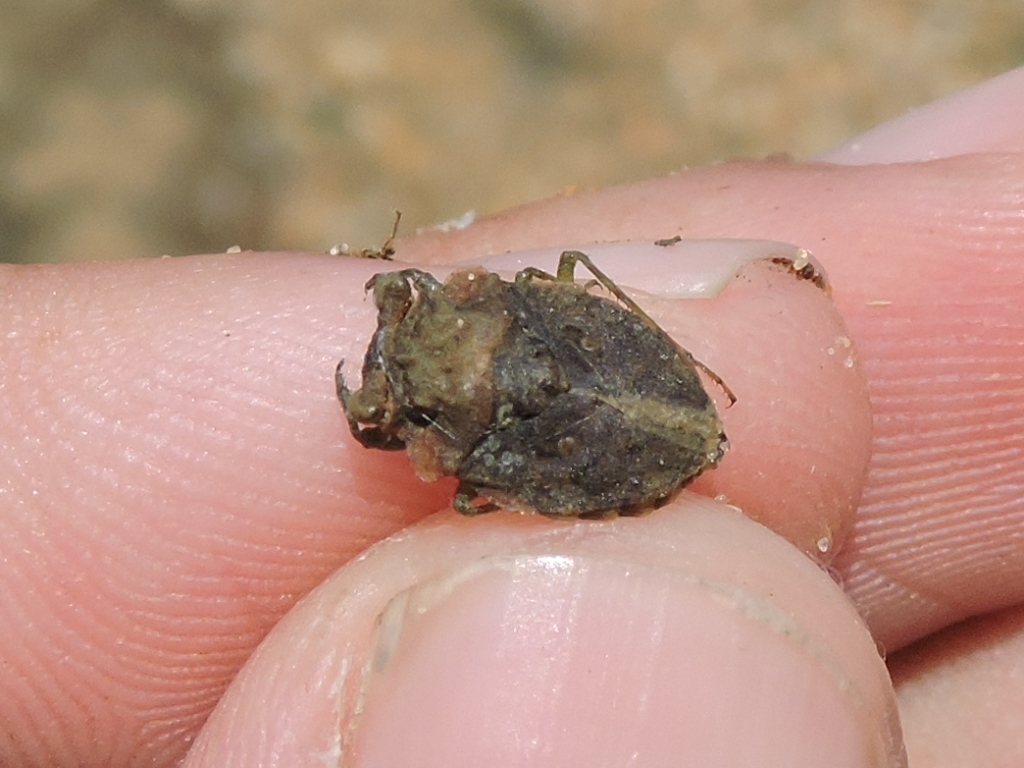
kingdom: Animalia
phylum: Arthropoda
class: Insecta
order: Hemiptera
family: Gelastocoridae
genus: Gelastocoris
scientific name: Gelastocoris oculatus
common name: Toad bug
